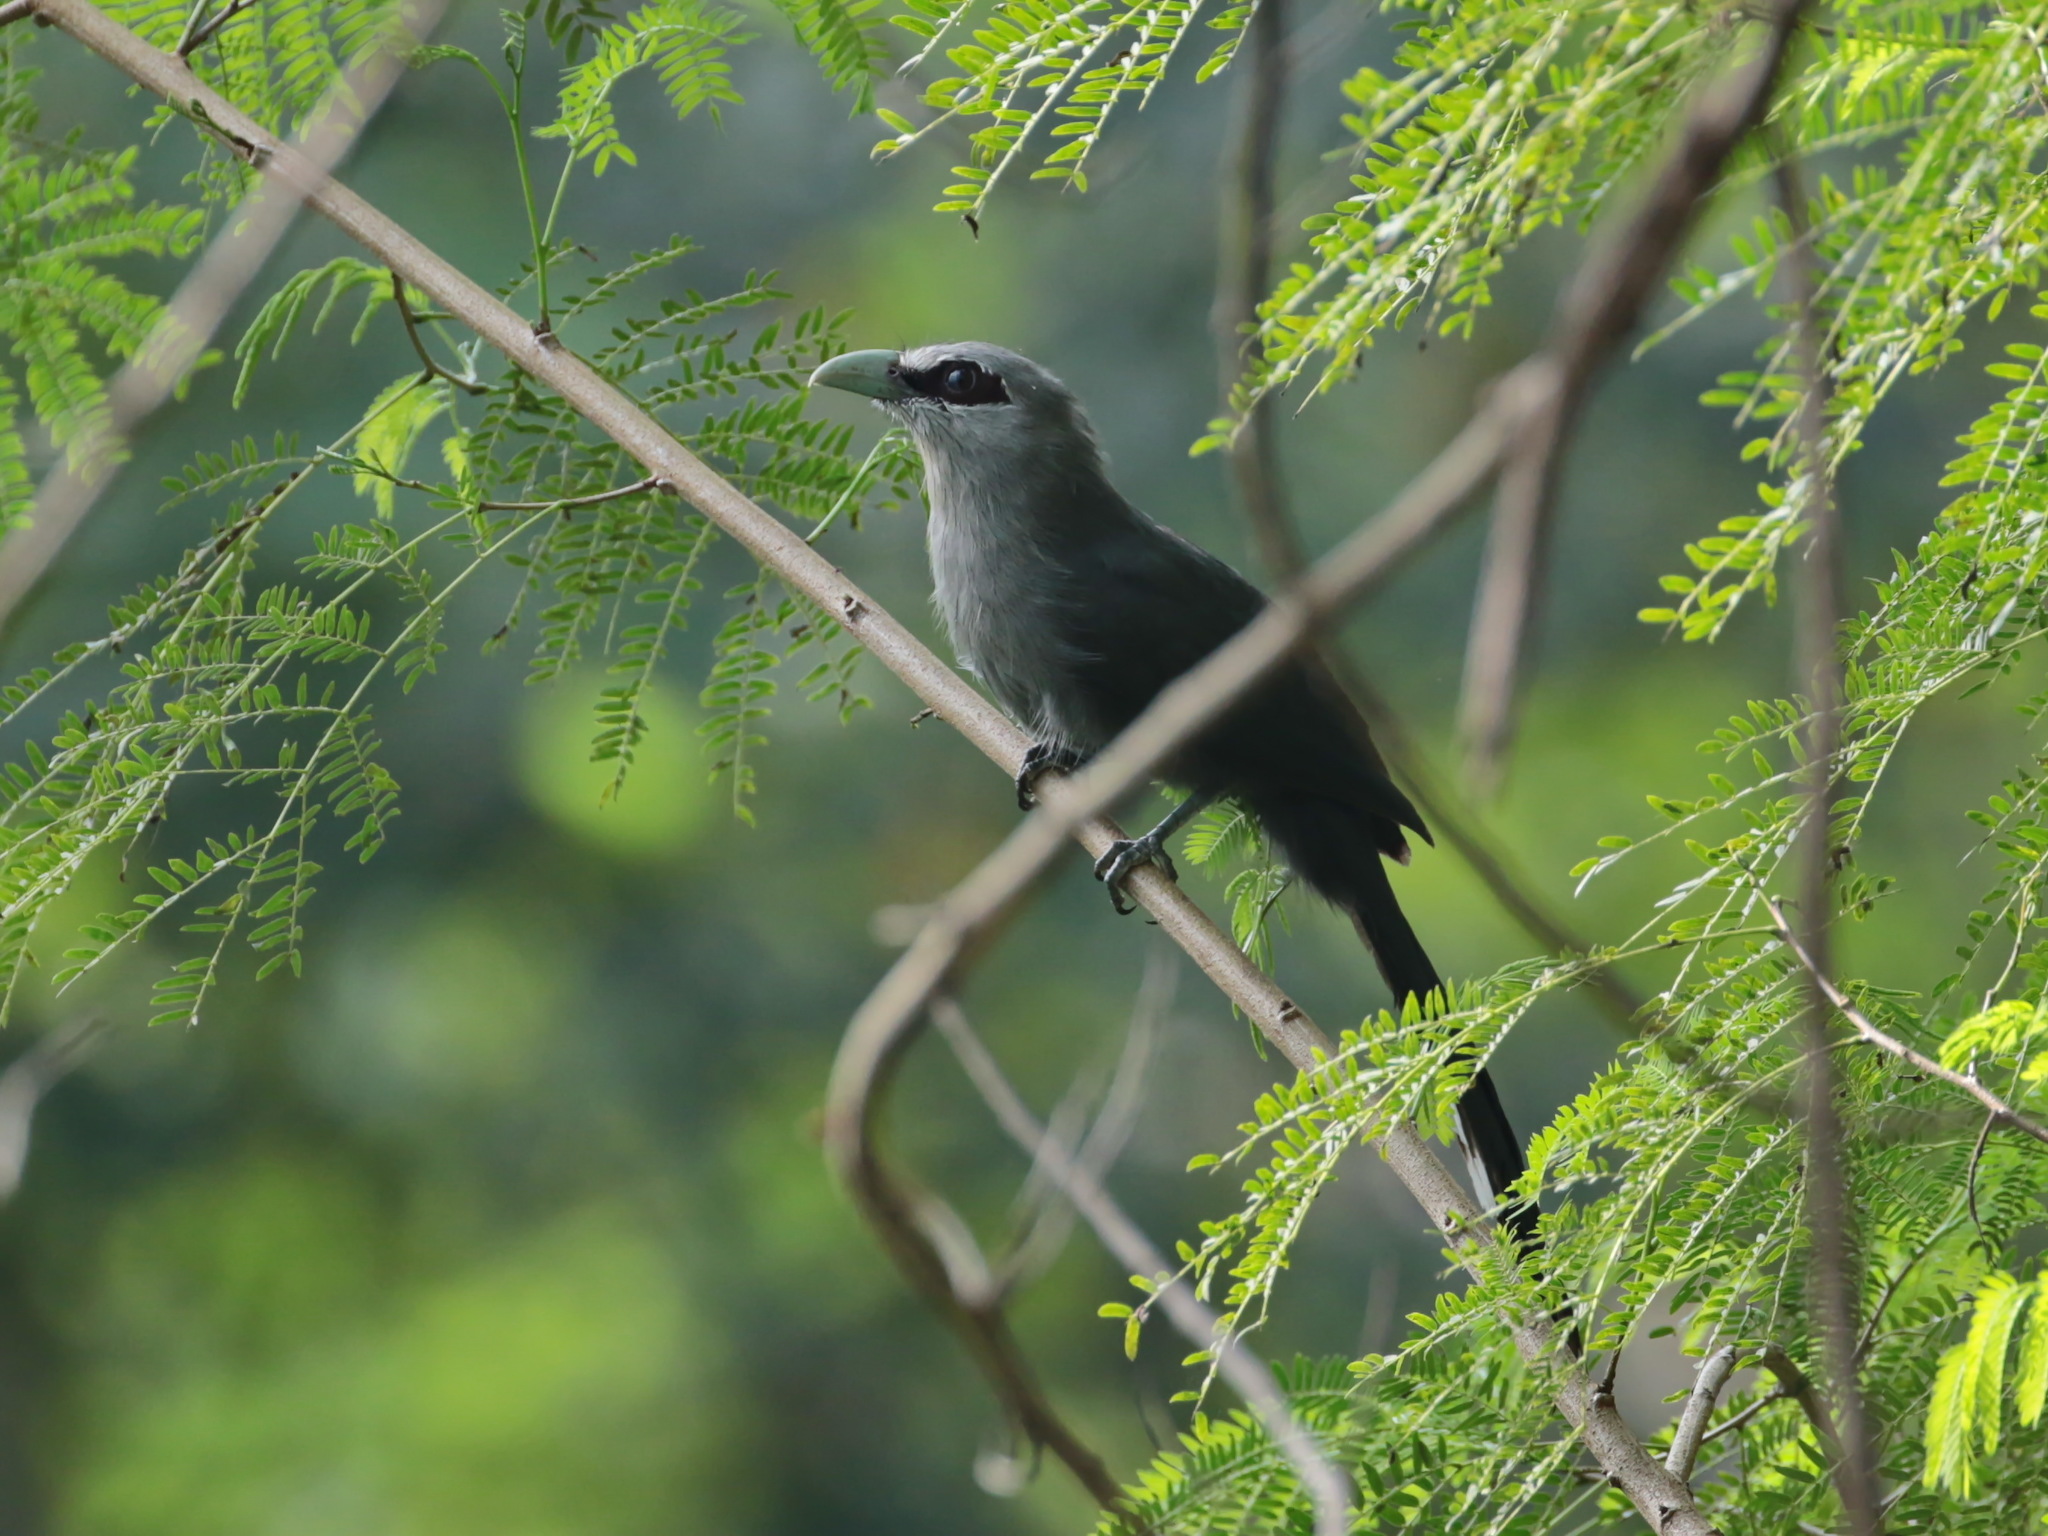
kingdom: Animalia
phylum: Chordata
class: Aves
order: Cuculiformes
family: Cuculidae
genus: Rhopodytes
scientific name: Rhopodytes tristis
